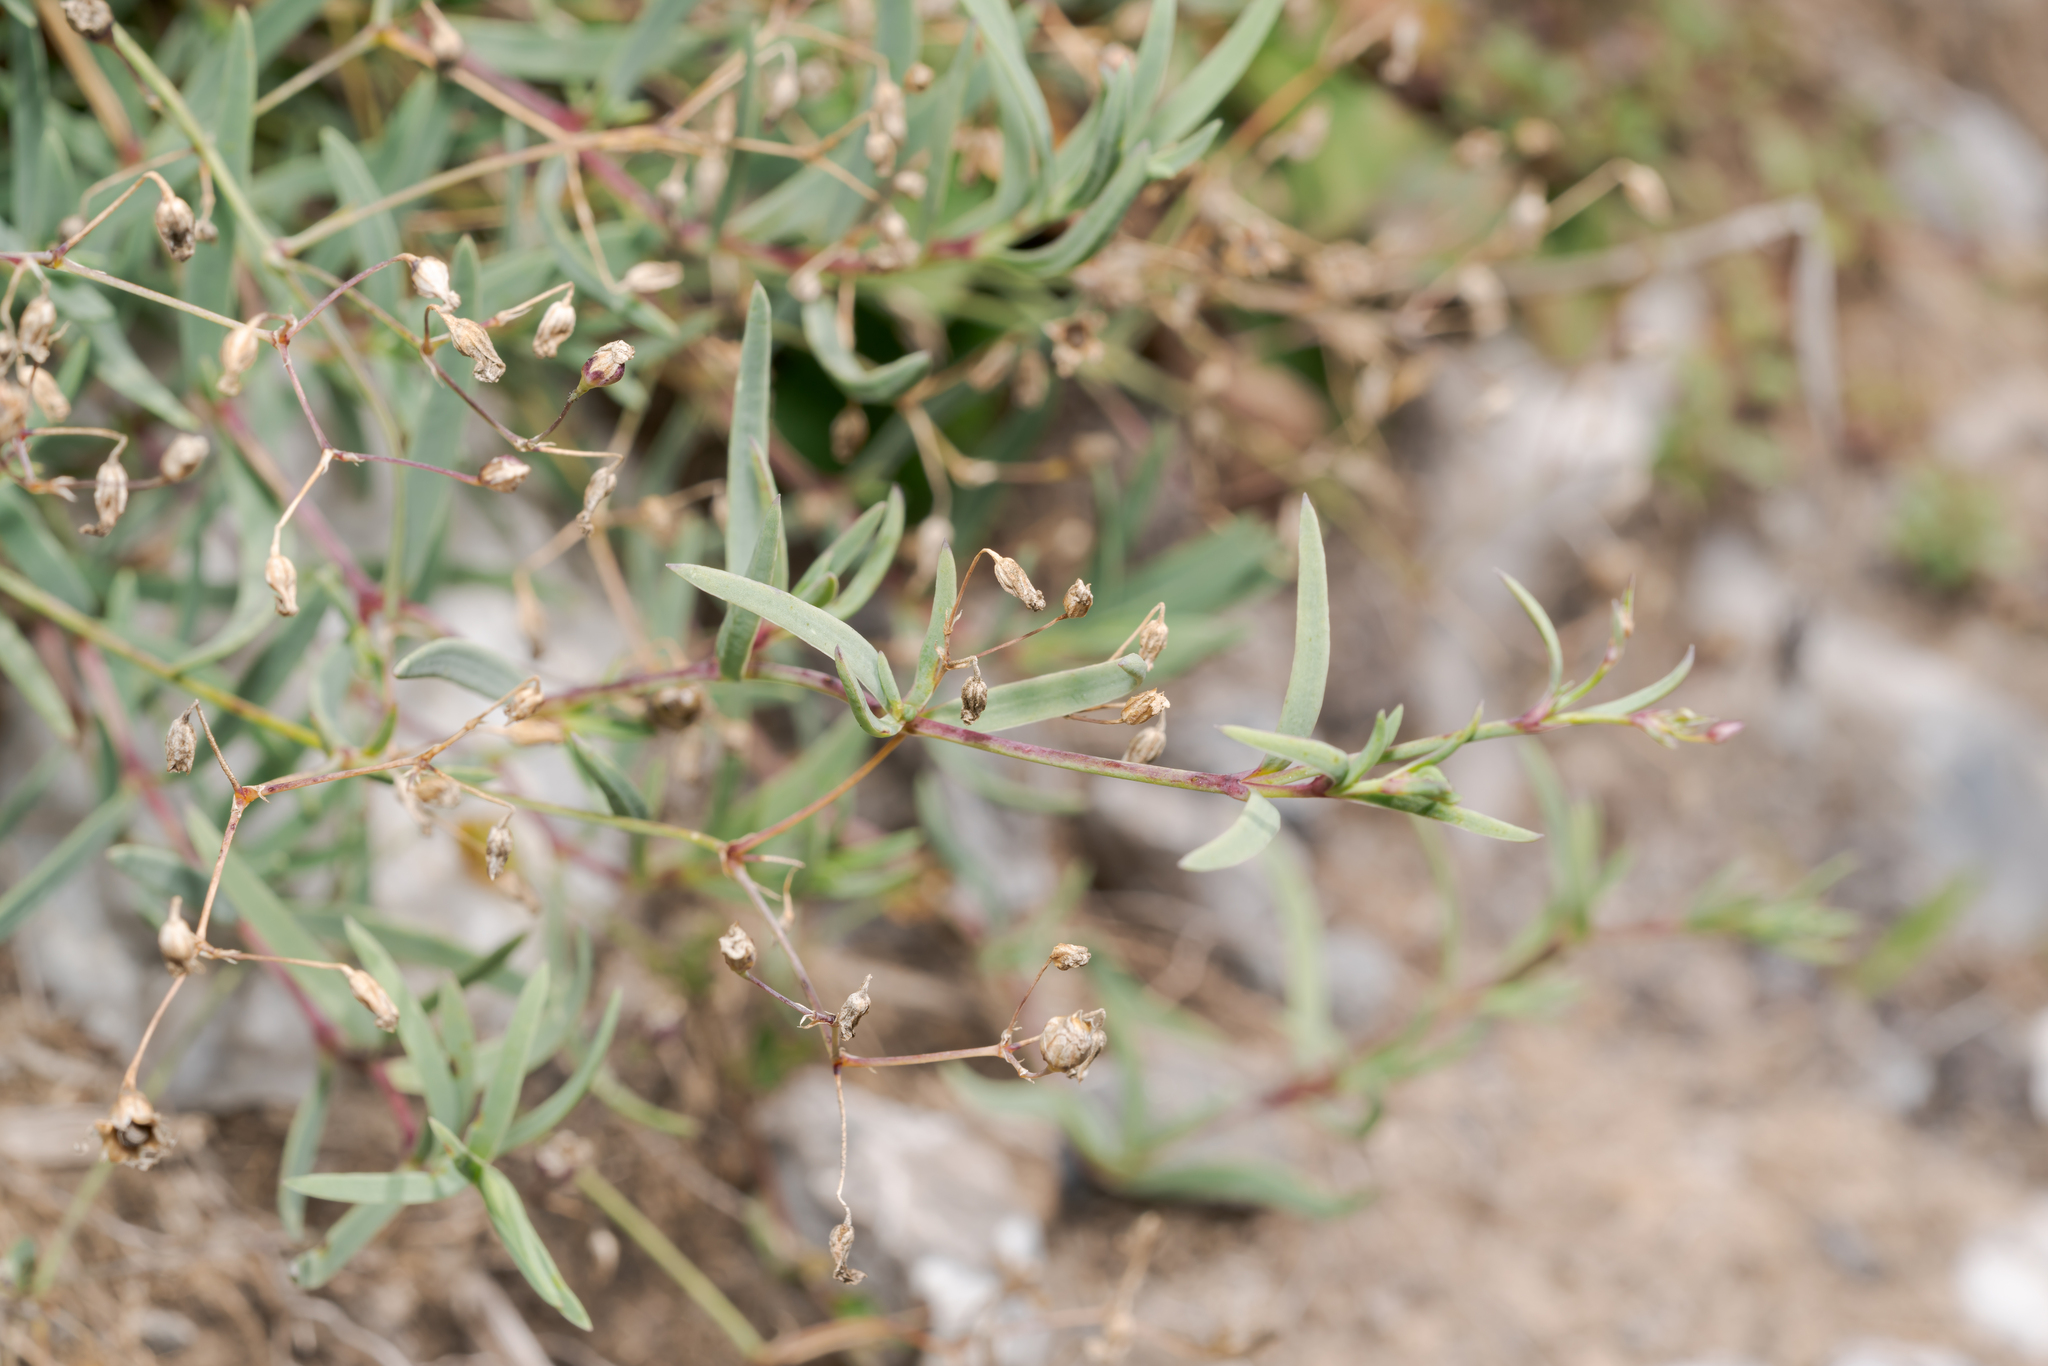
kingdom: Plantae
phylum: Tracheophyta
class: Magnoliopsida
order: Caryophyllales
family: Caryophyllaceae
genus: Gypsophila
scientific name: Gypsophila repens
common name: Creeping baby's-breath
